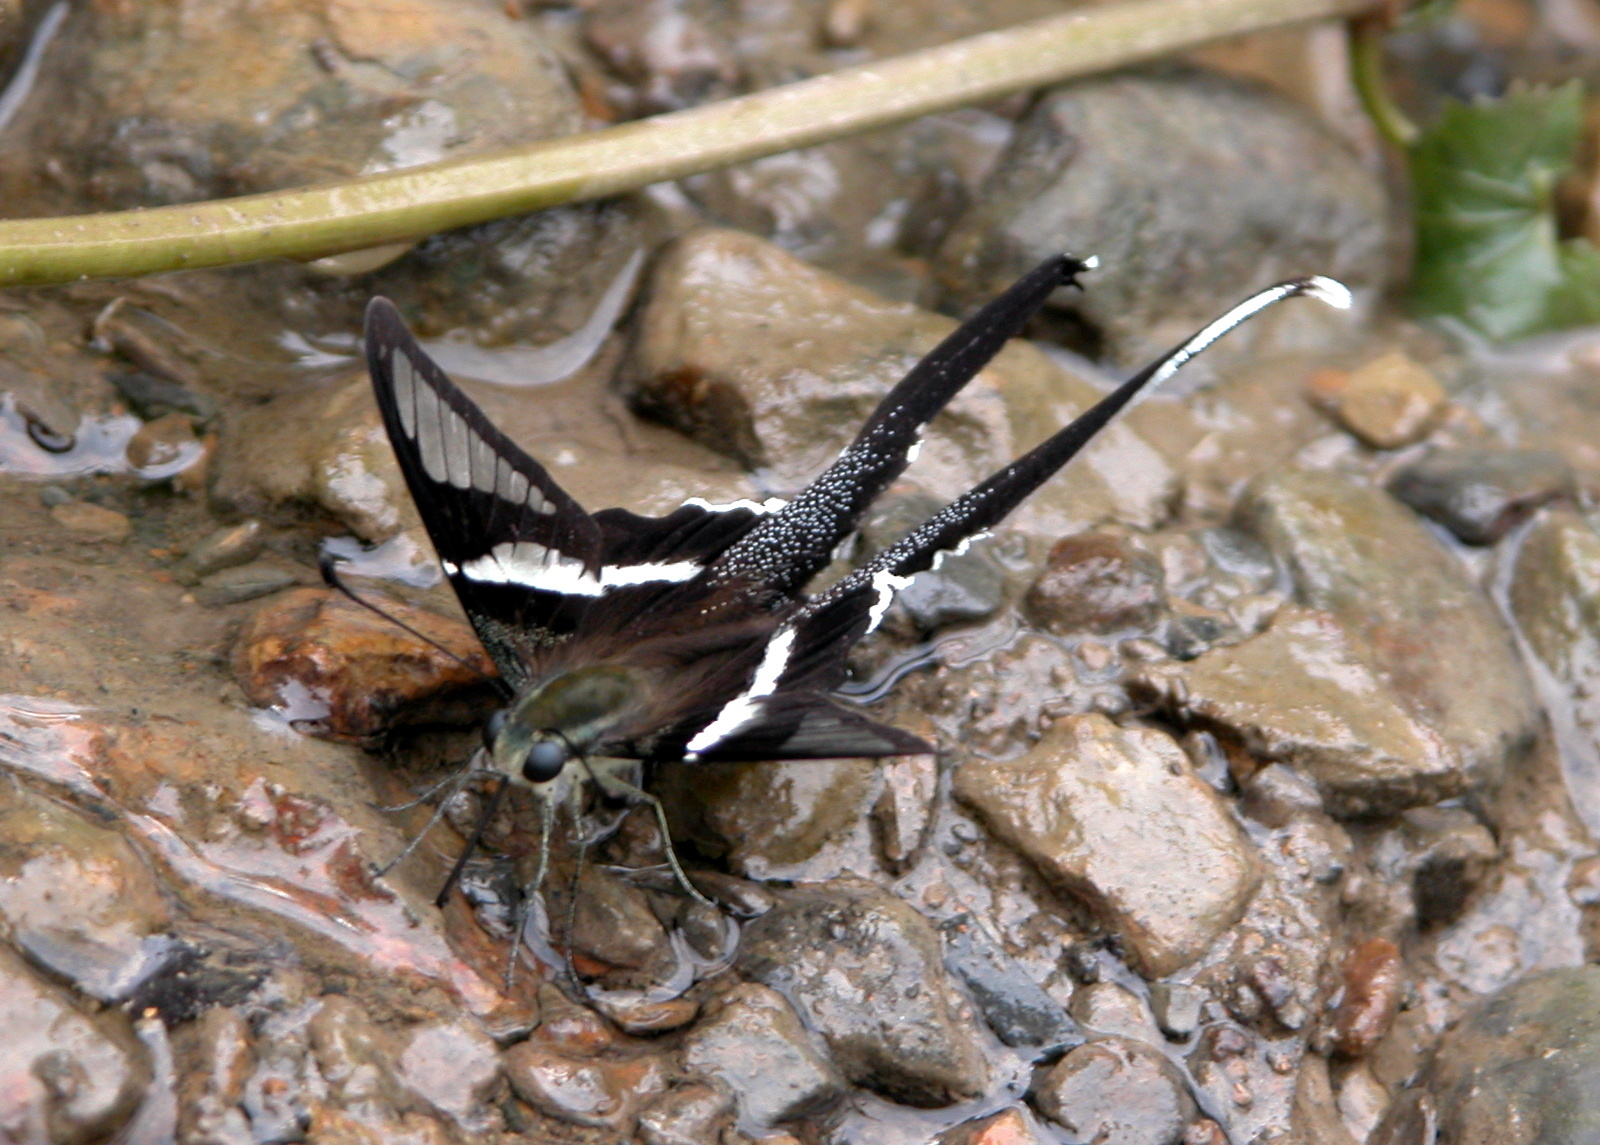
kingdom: Animalia
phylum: Arthropoda
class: Insecta
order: Lepidoptera
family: Papilionidae
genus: Lamproptera
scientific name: Lamproptera curius
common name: White dragontail
